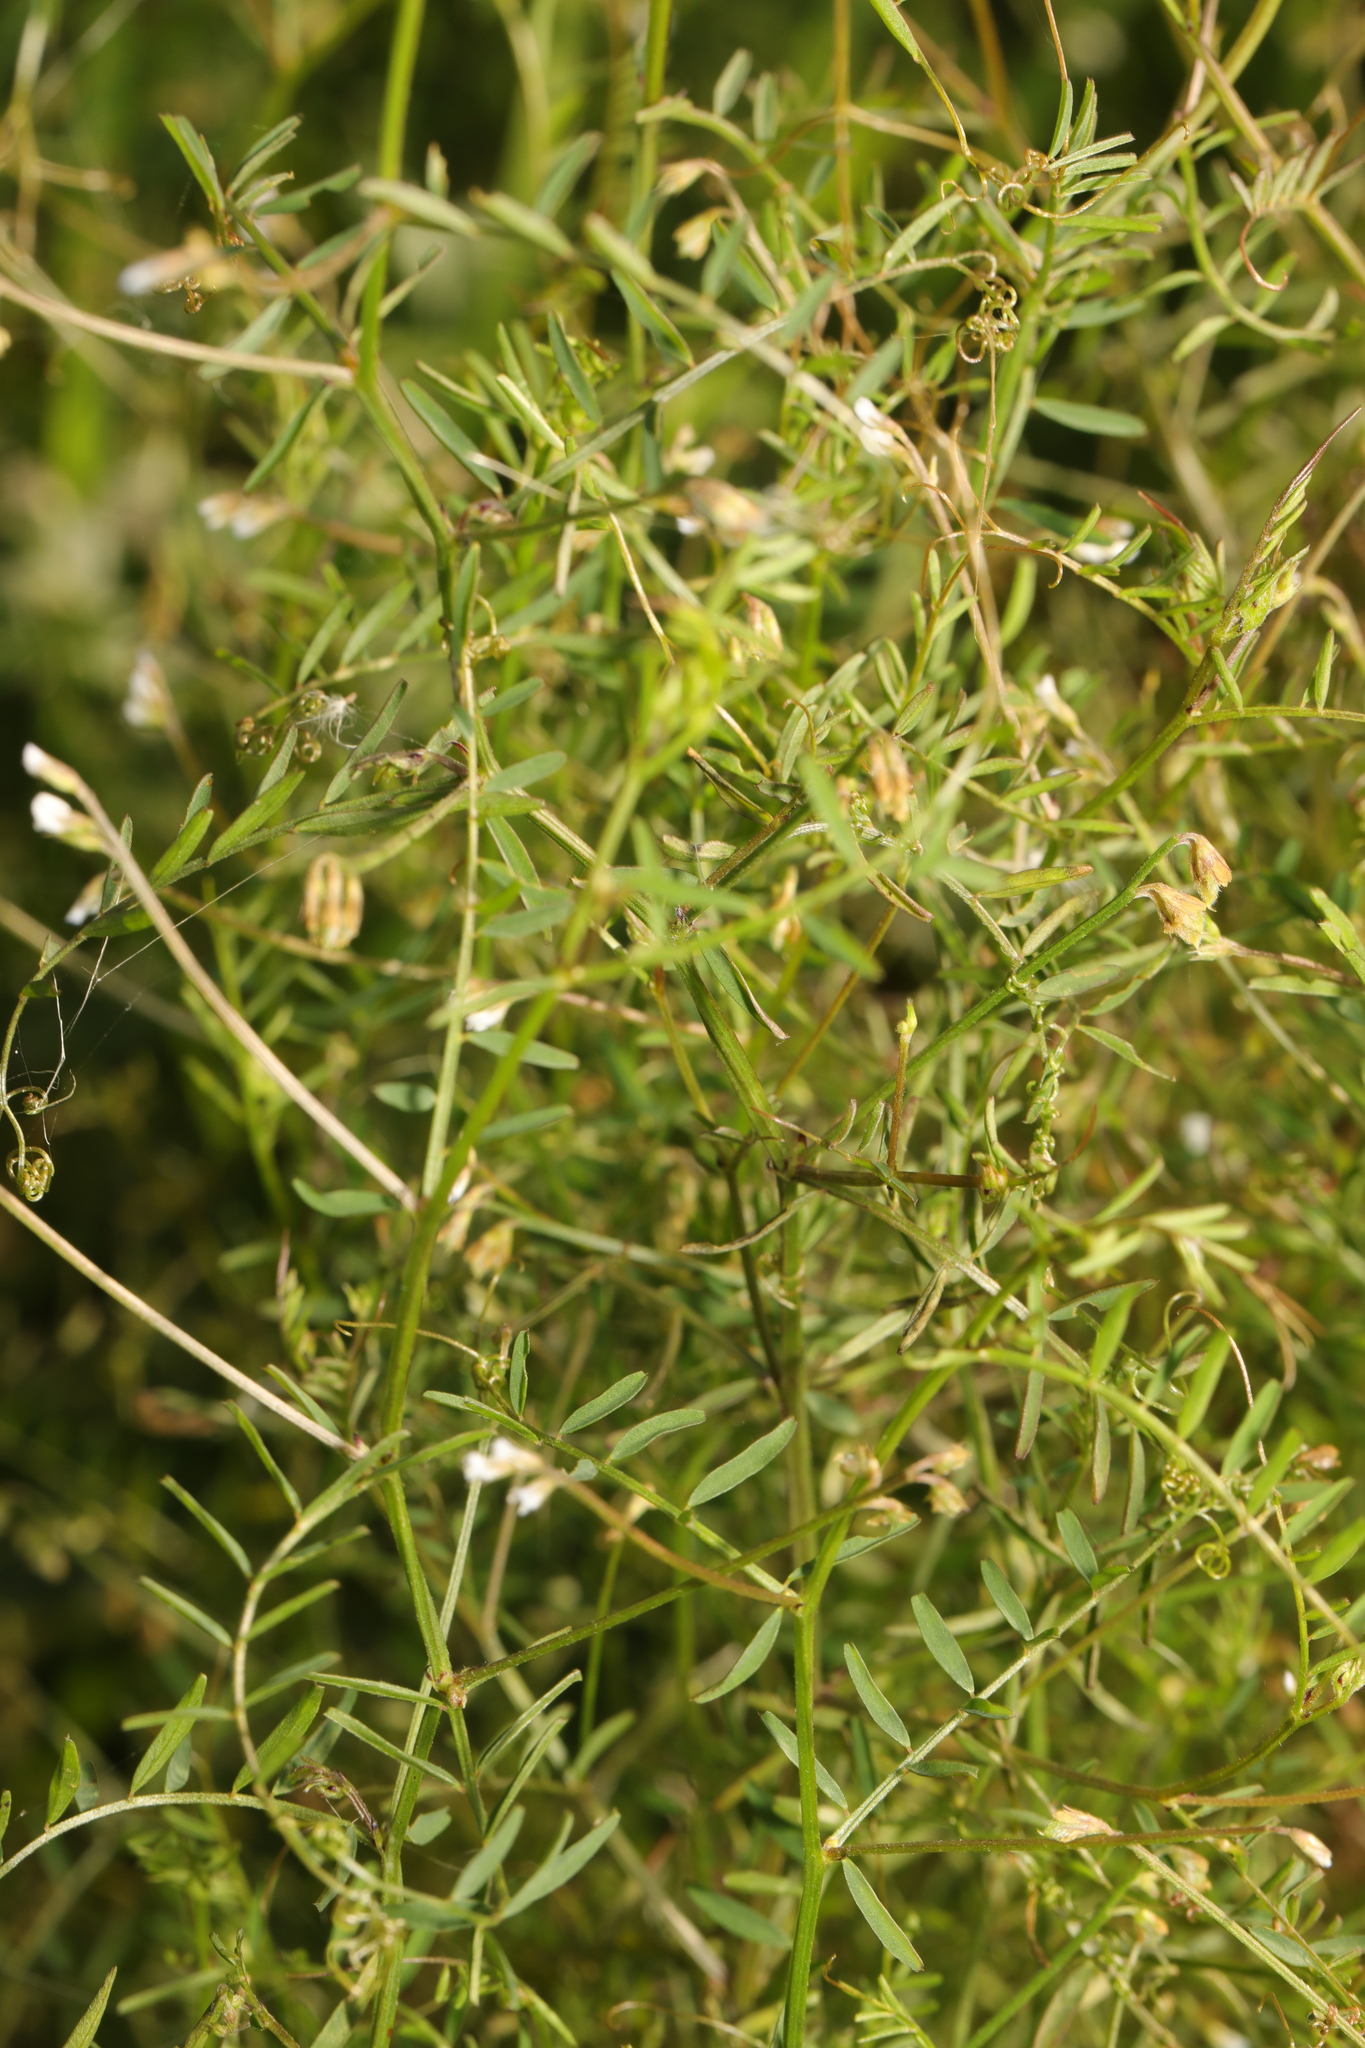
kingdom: Plantae
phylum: Tracheophyta
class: Magnoliopsida
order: Fabales
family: Fabaceae
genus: Vicia
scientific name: Vicia hirsuta
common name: Tiny vetch
